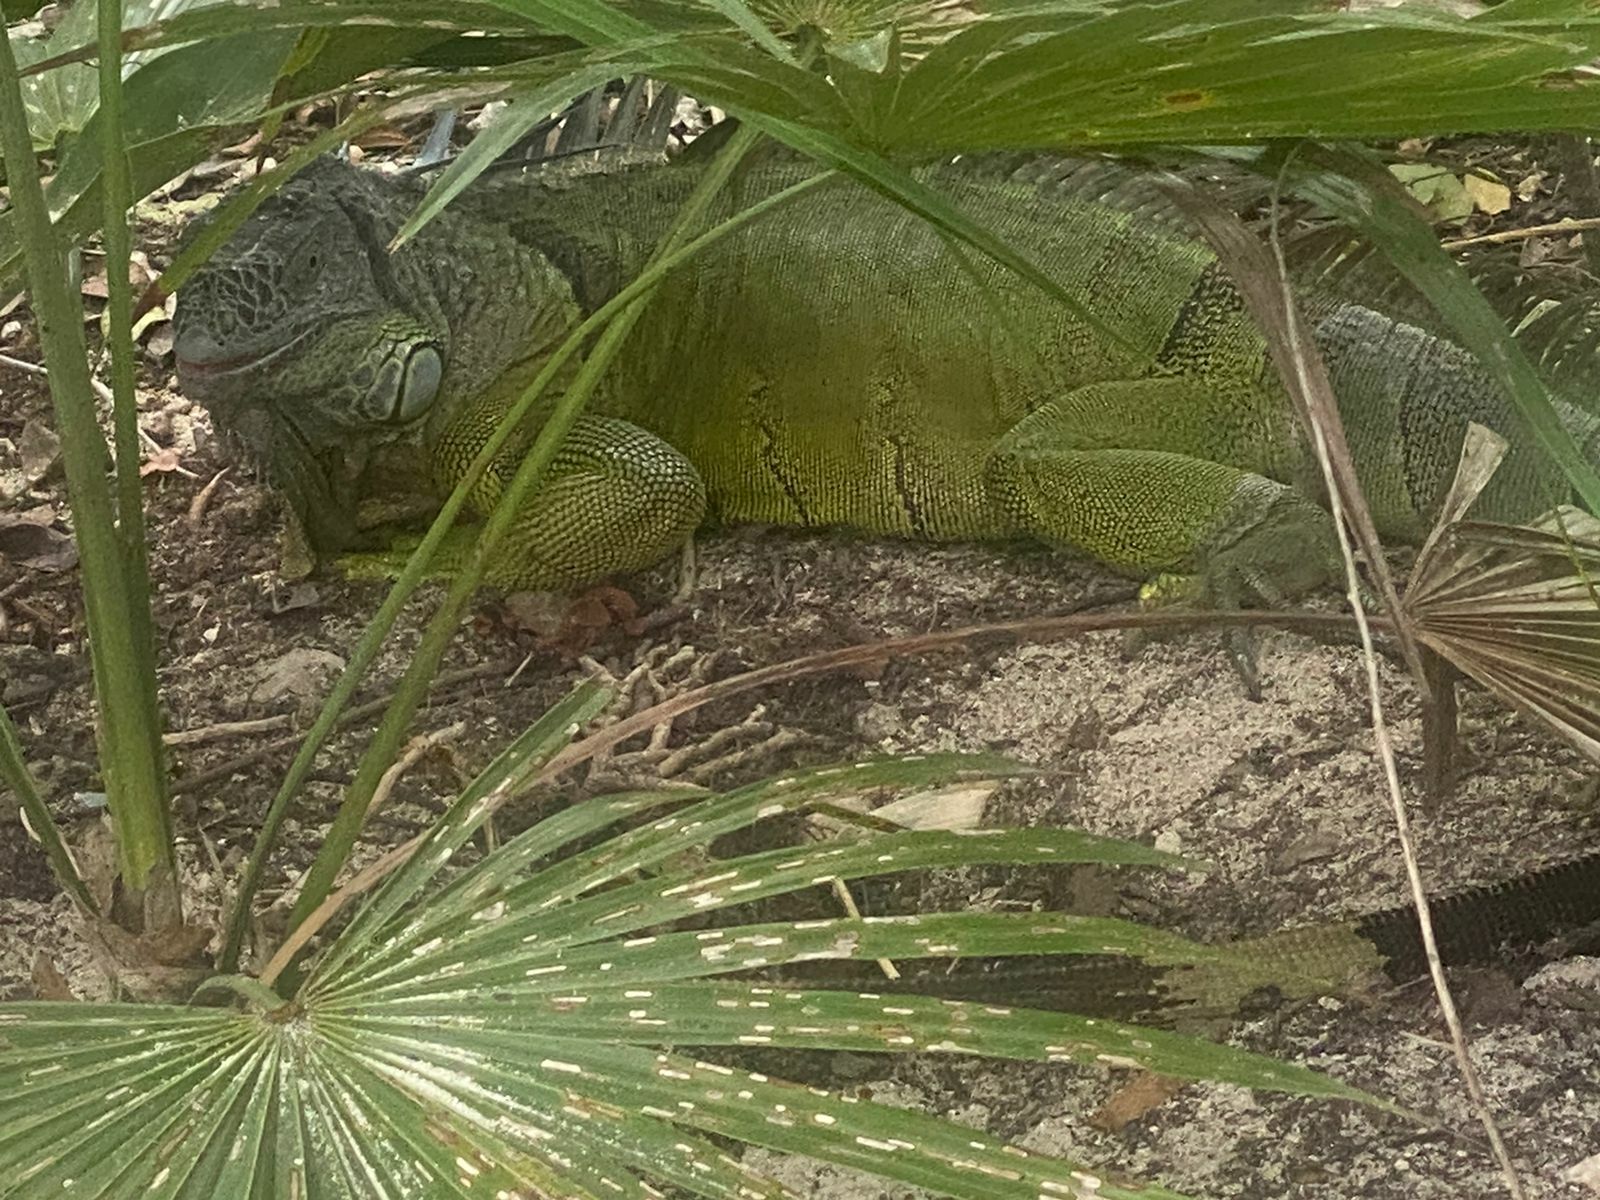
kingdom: Animalia
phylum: Chordata
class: Squamata
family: Iguanidae
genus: Iguana
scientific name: Iguana iguana
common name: Green iguana
